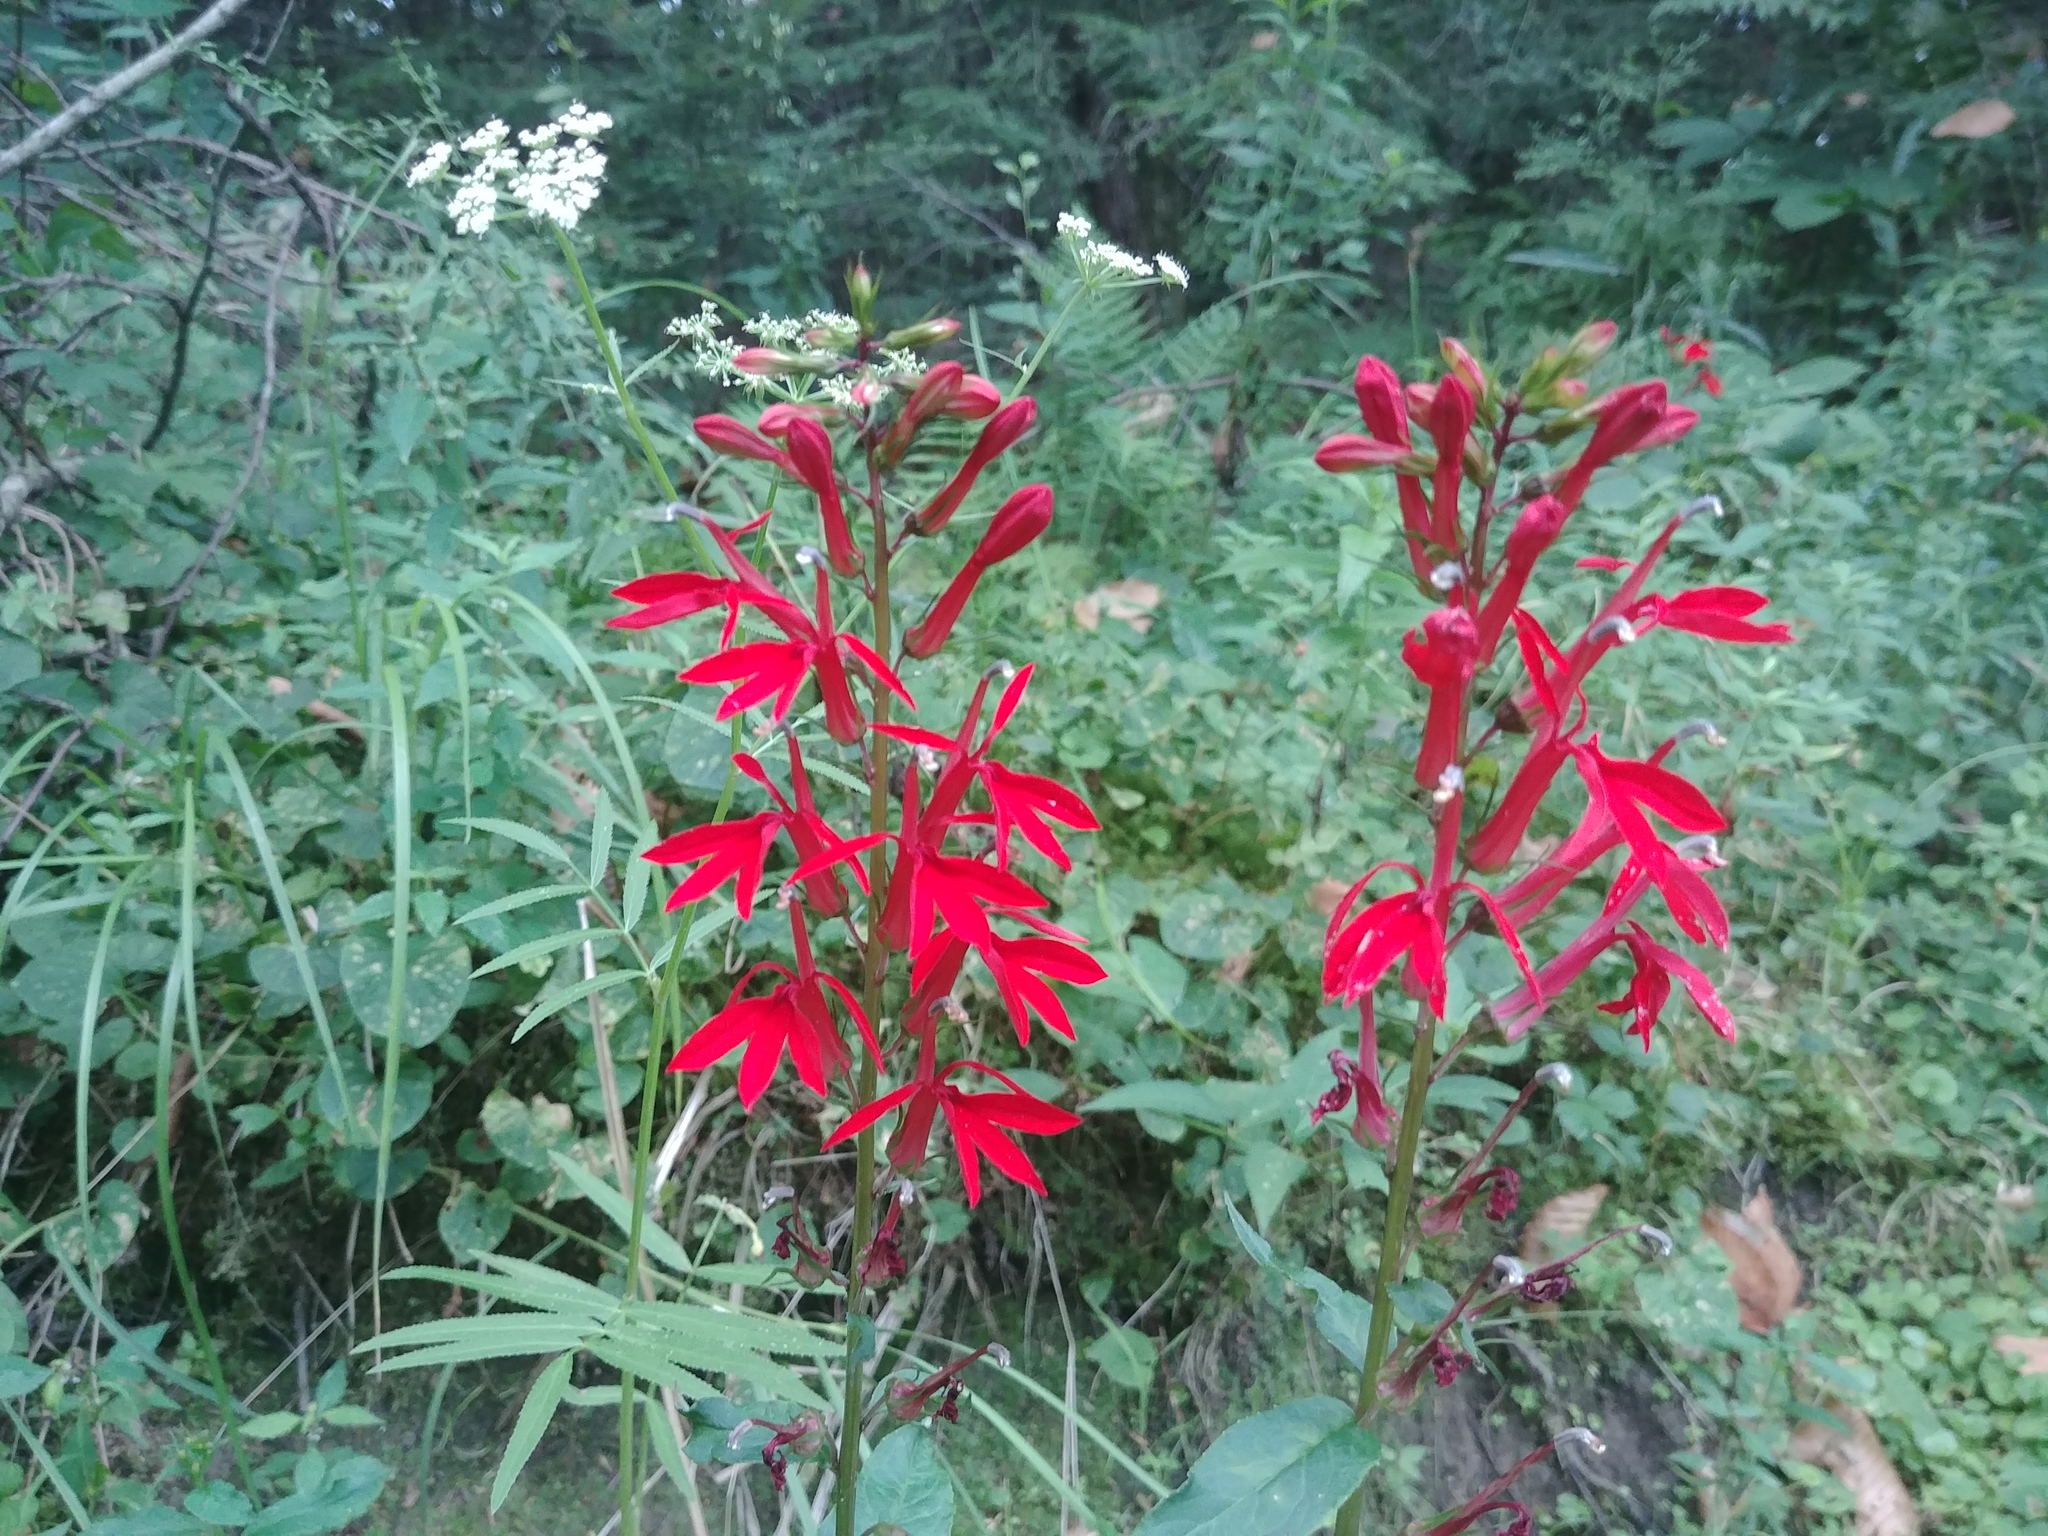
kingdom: Plantae
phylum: Tracheophyta
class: Magnoliopsida
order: Asterales
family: Campanulaceae
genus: Lobelia
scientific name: Lobelia cardinalis
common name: Cardinal flower
